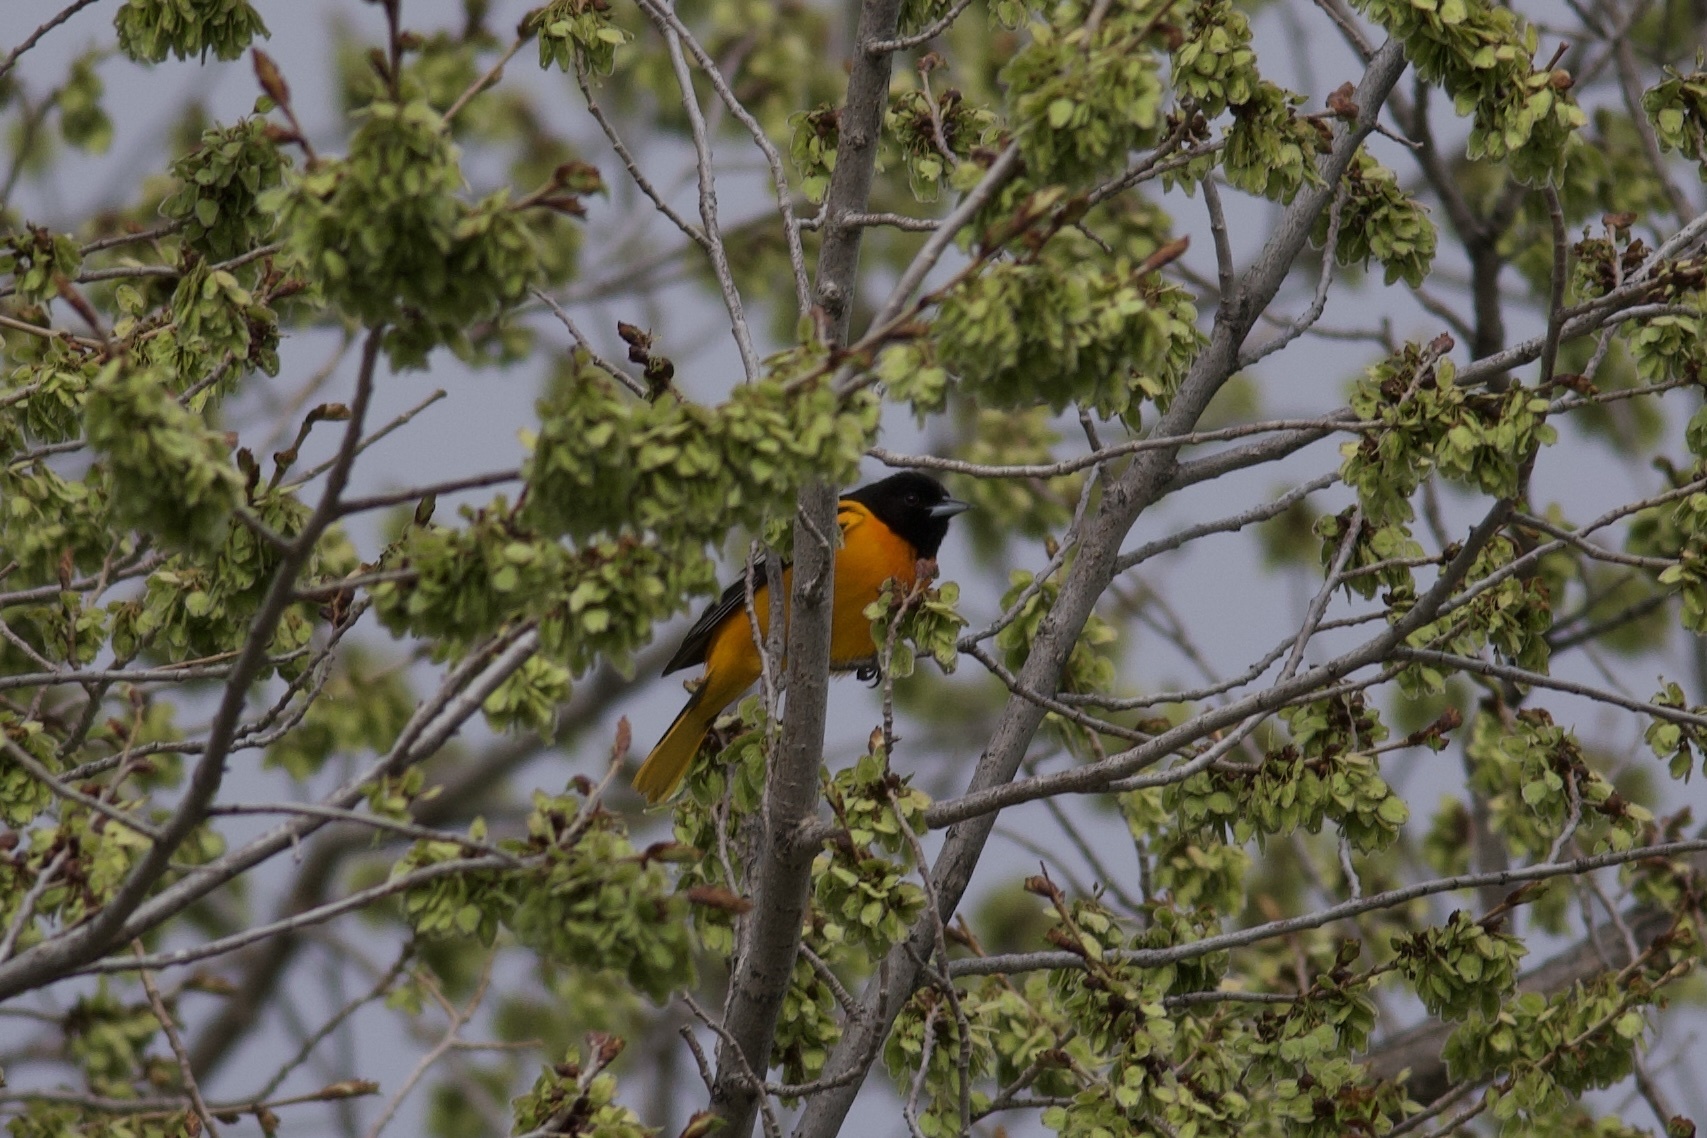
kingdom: Animalia
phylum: Chordata
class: Aves
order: Passeriformes
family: Icteridae
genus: Icterus
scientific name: Icterus galbula
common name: Baltimore oriole
